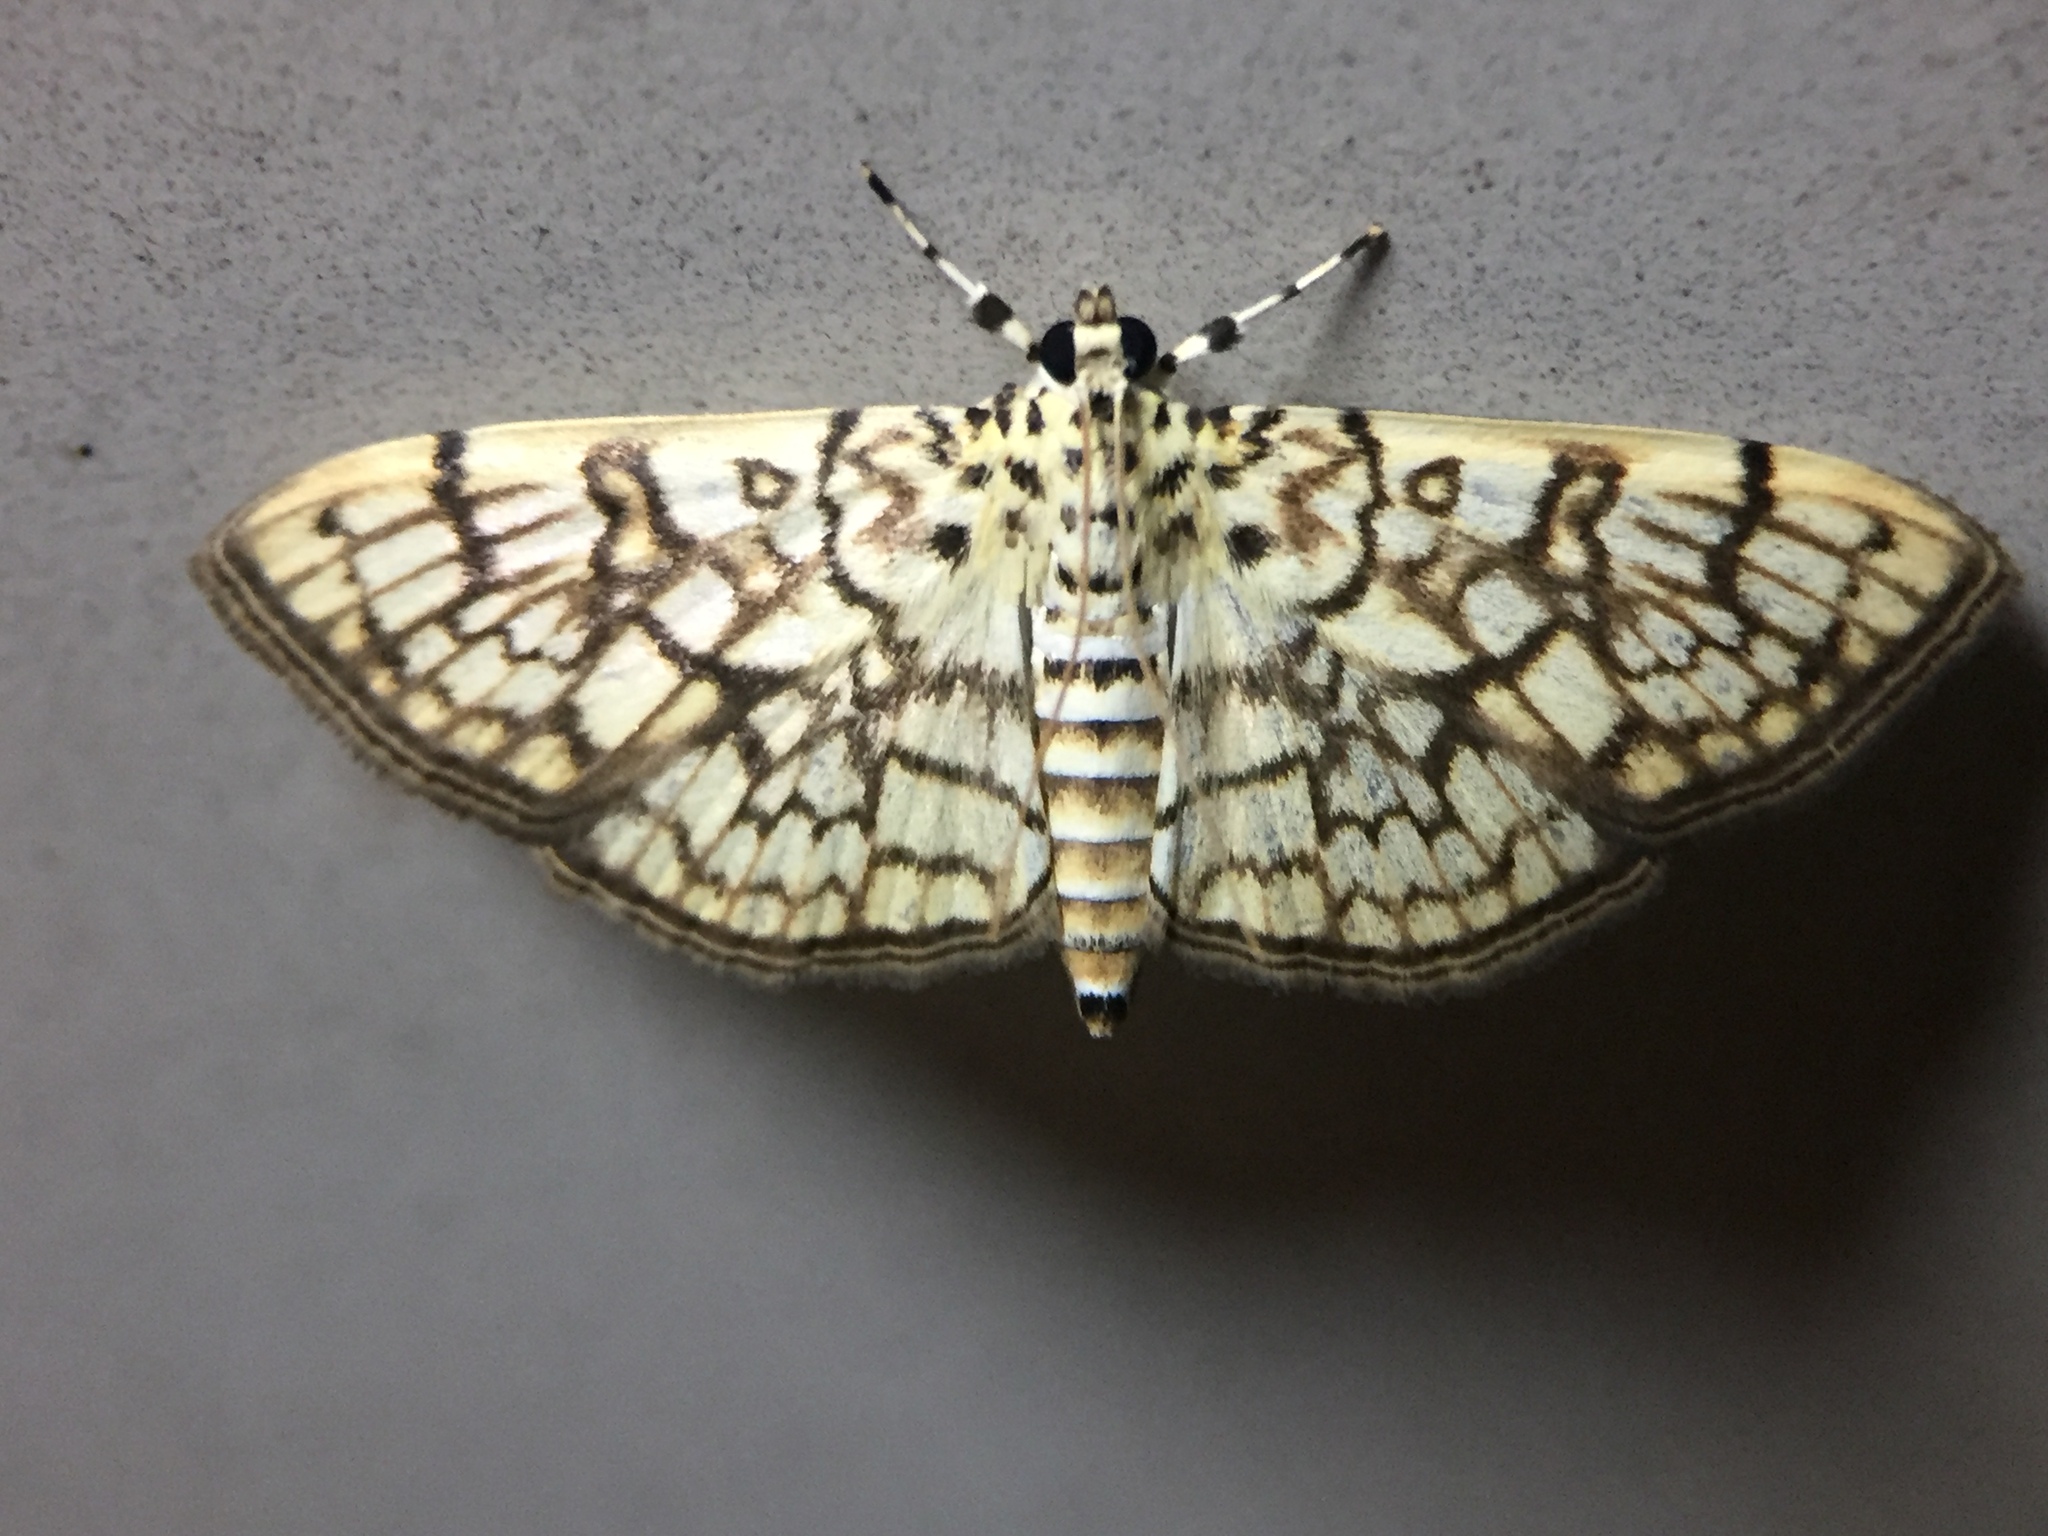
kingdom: Animalia
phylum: Arthropoda
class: Insecta
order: Lepidoptera
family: Crambidae
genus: Haritalodes
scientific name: Haritalodes derogata
